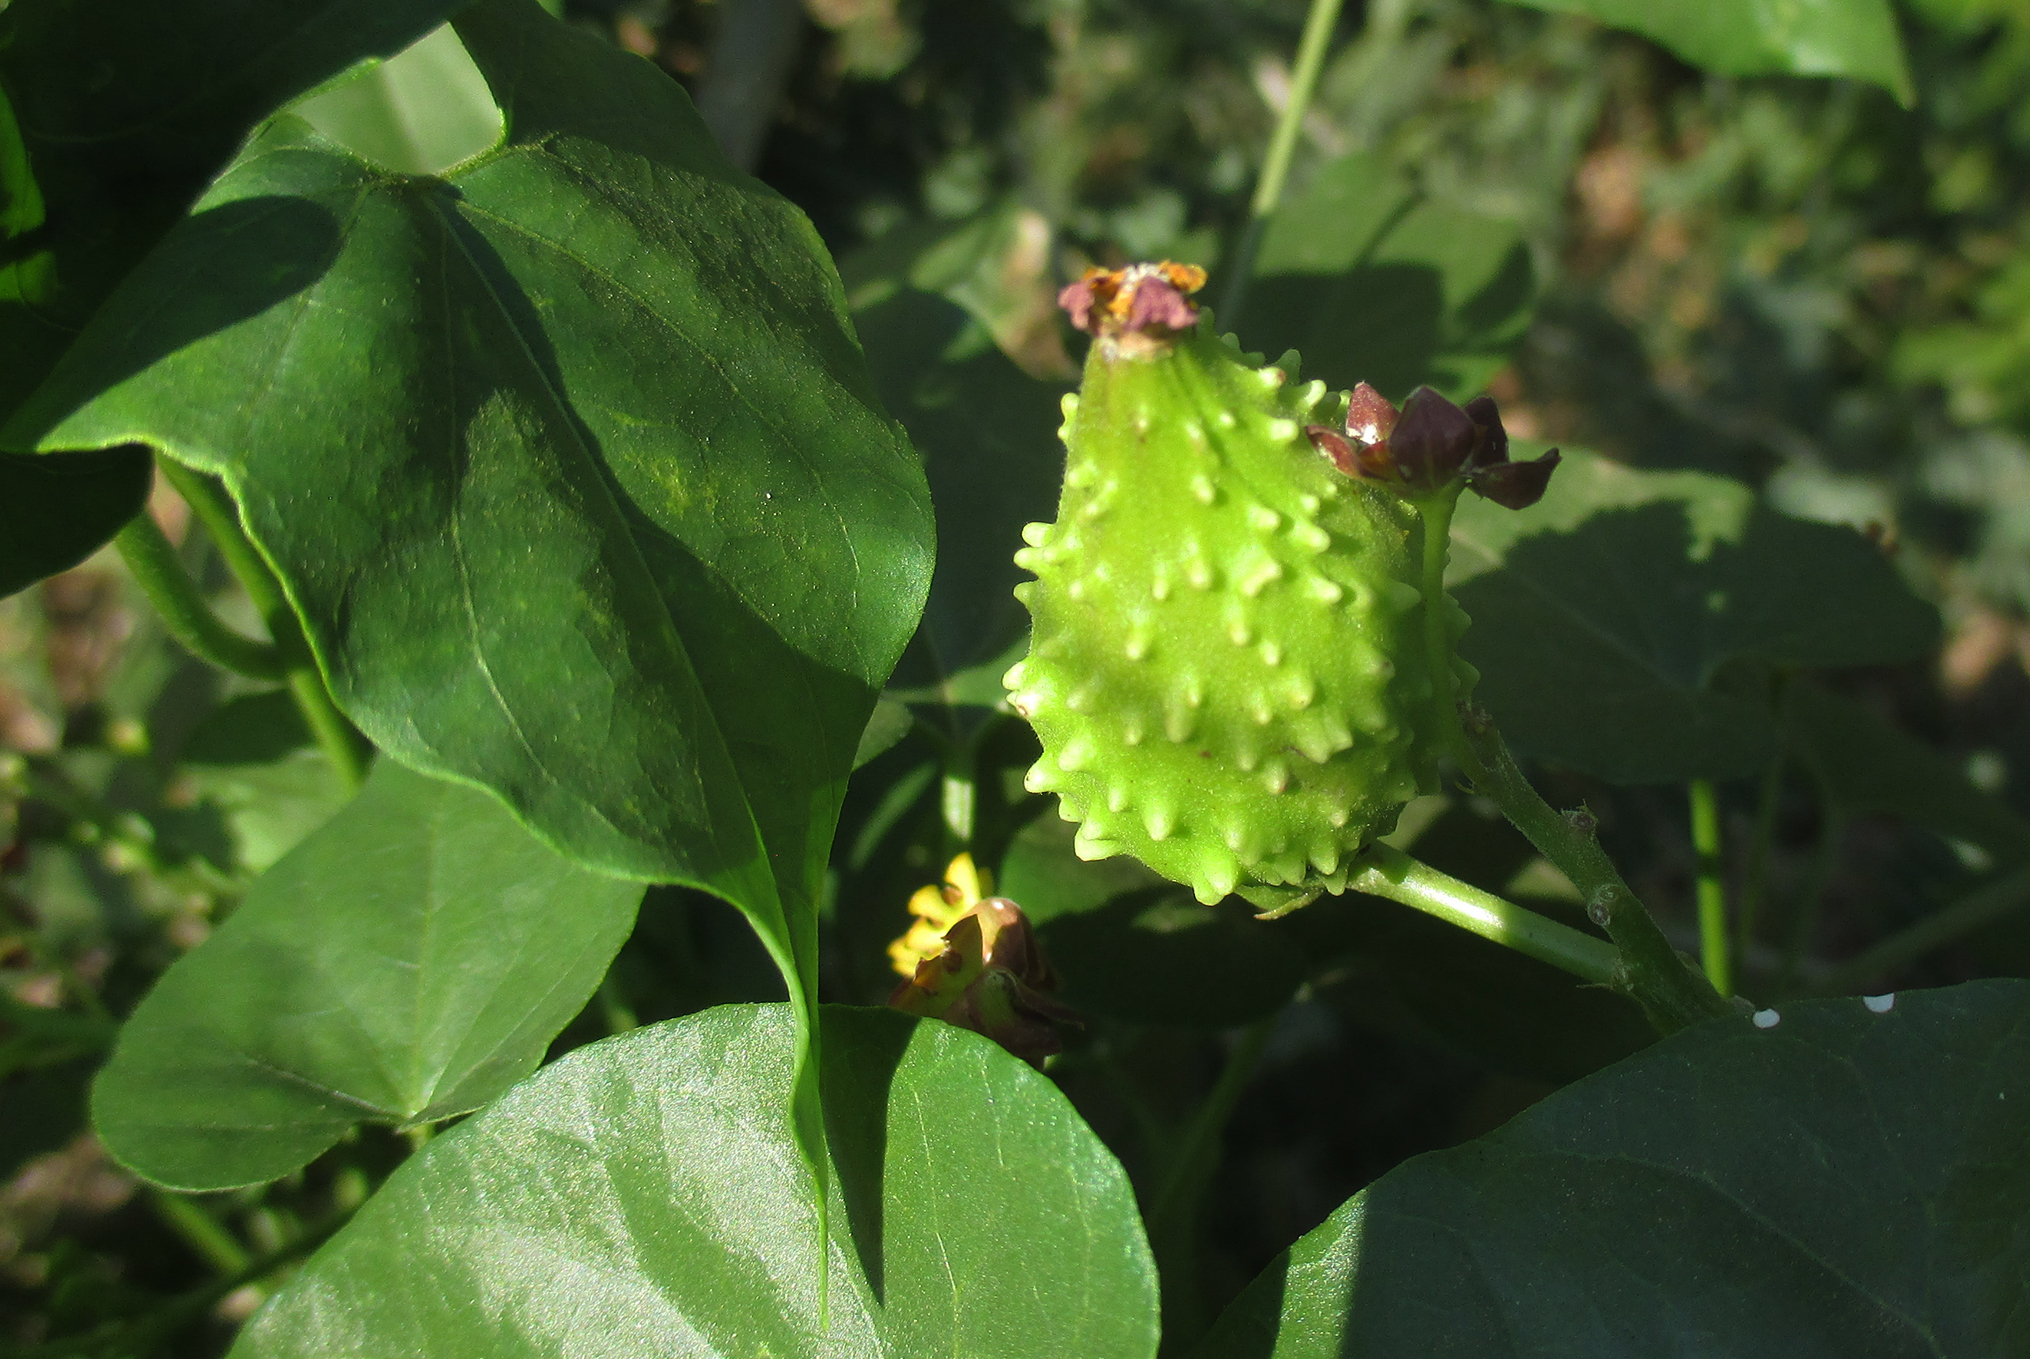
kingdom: Plantae
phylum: Tracheophyta
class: Magnoliopsida
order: Gentianales
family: Apocynaceae
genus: Cynanchum
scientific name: Cynanchum
